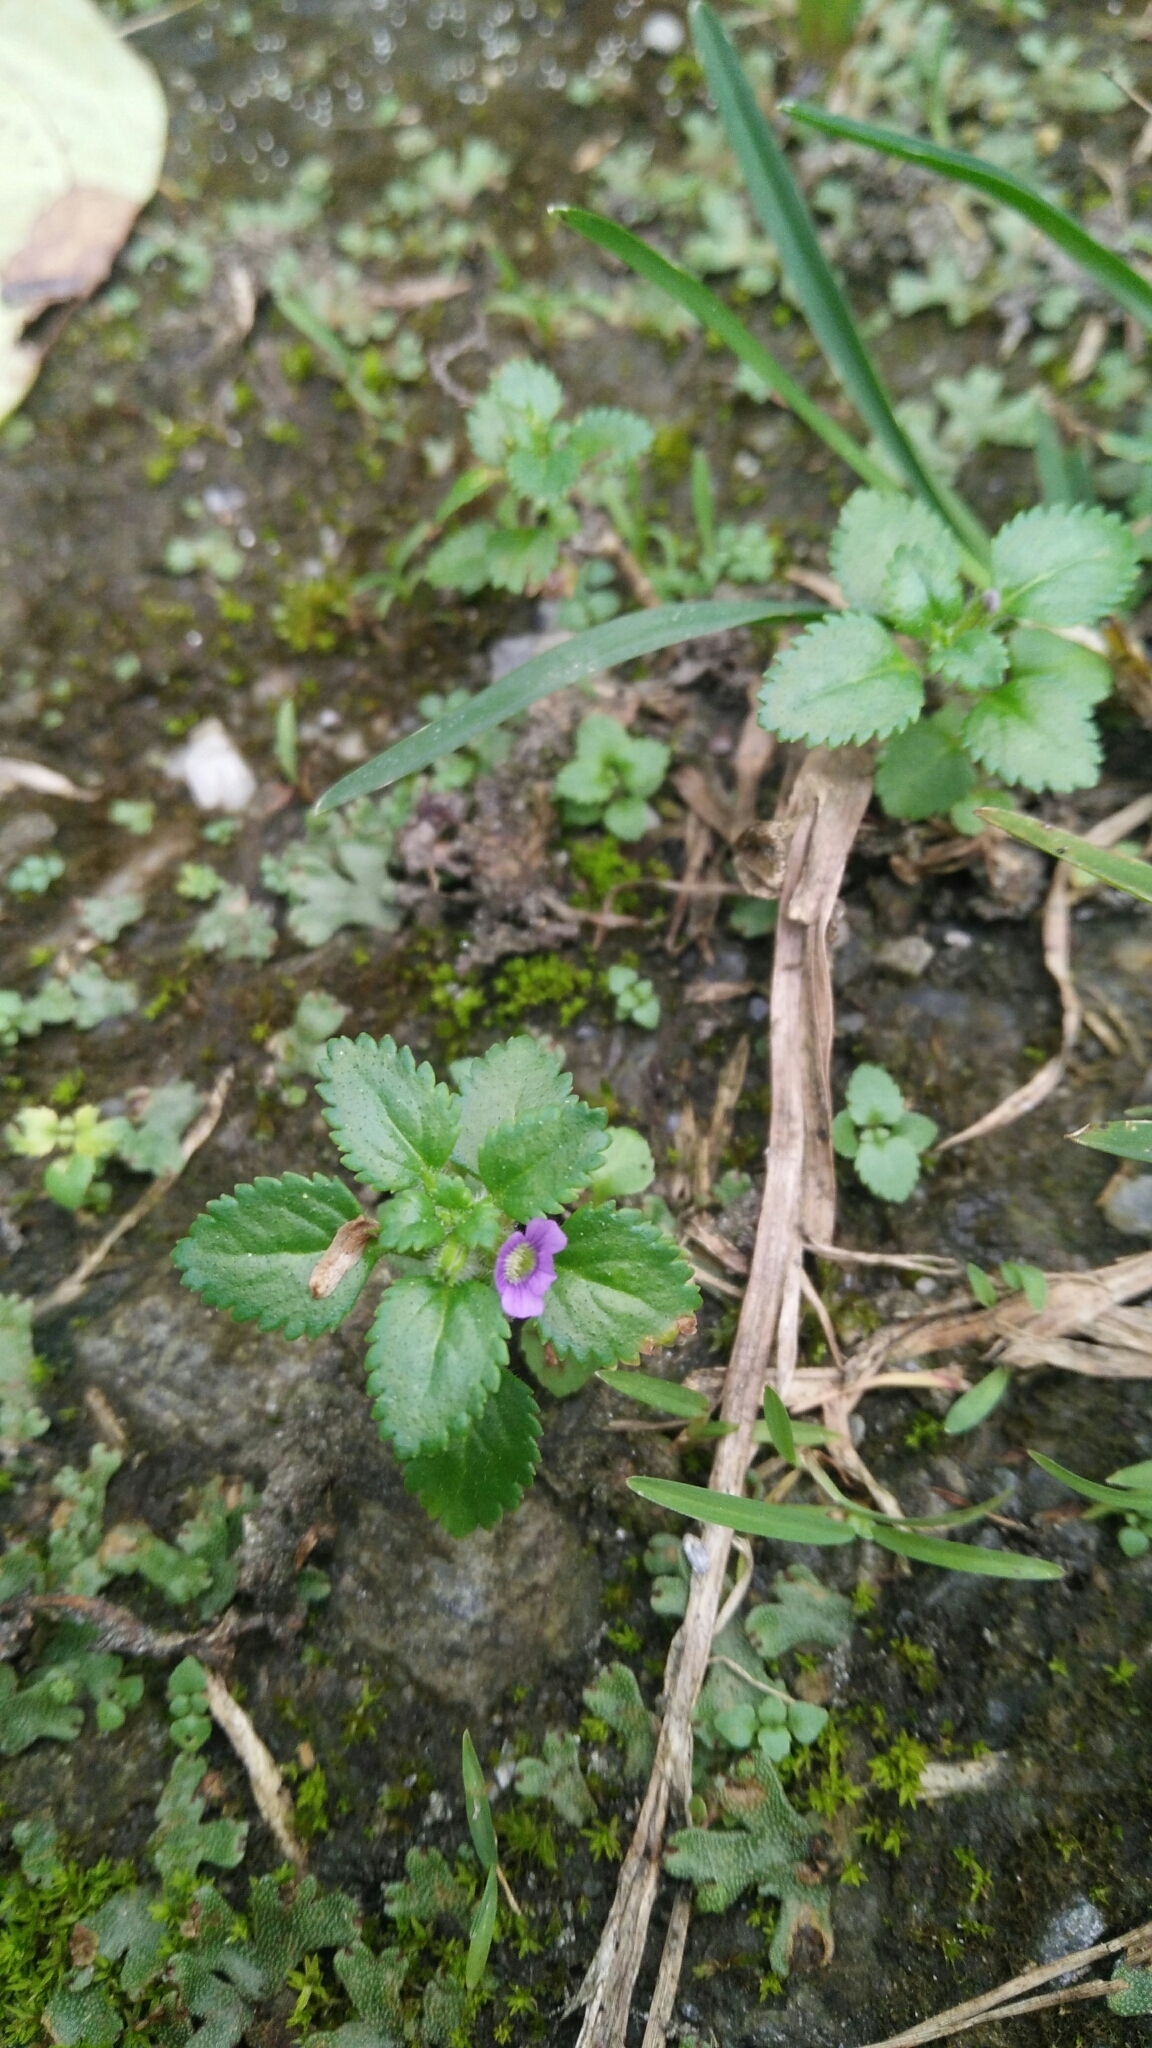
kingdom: Plantae
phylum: Tracheophyta
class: Magnoliopsida
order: Lamiales
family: Plantaginaceae
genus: Stemodia
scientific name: Stemodia verticillata
